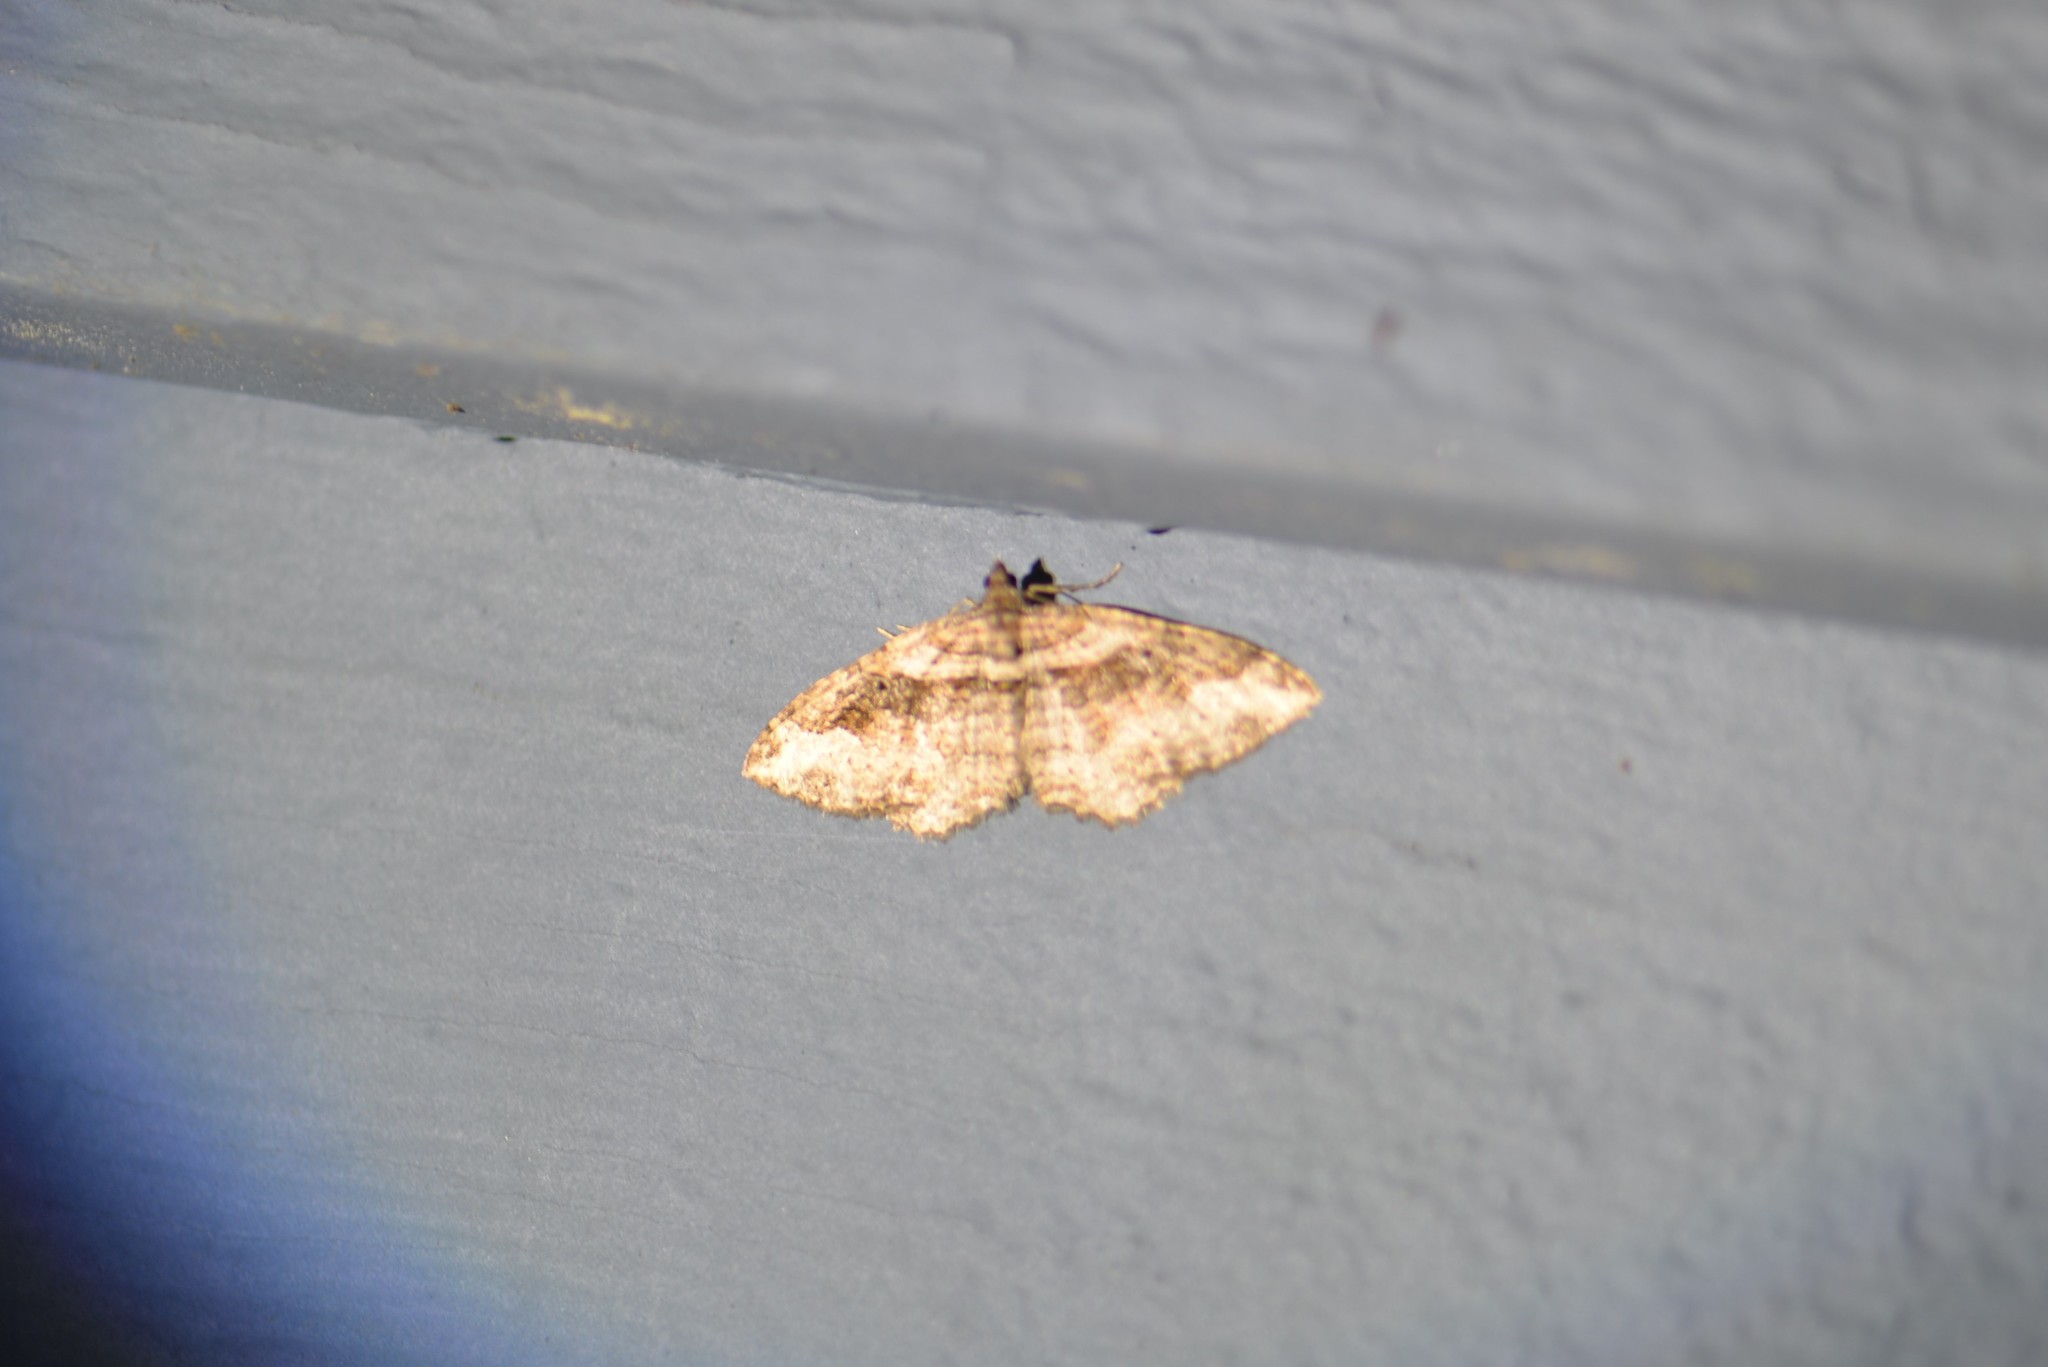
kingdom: Animalia
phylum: Arthropoda
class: Insecta
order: Lepidoptera
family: Geometridae
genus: Costaconvexa
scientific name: Costaconvexa centrostrigaria
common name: Bent-line carpet
